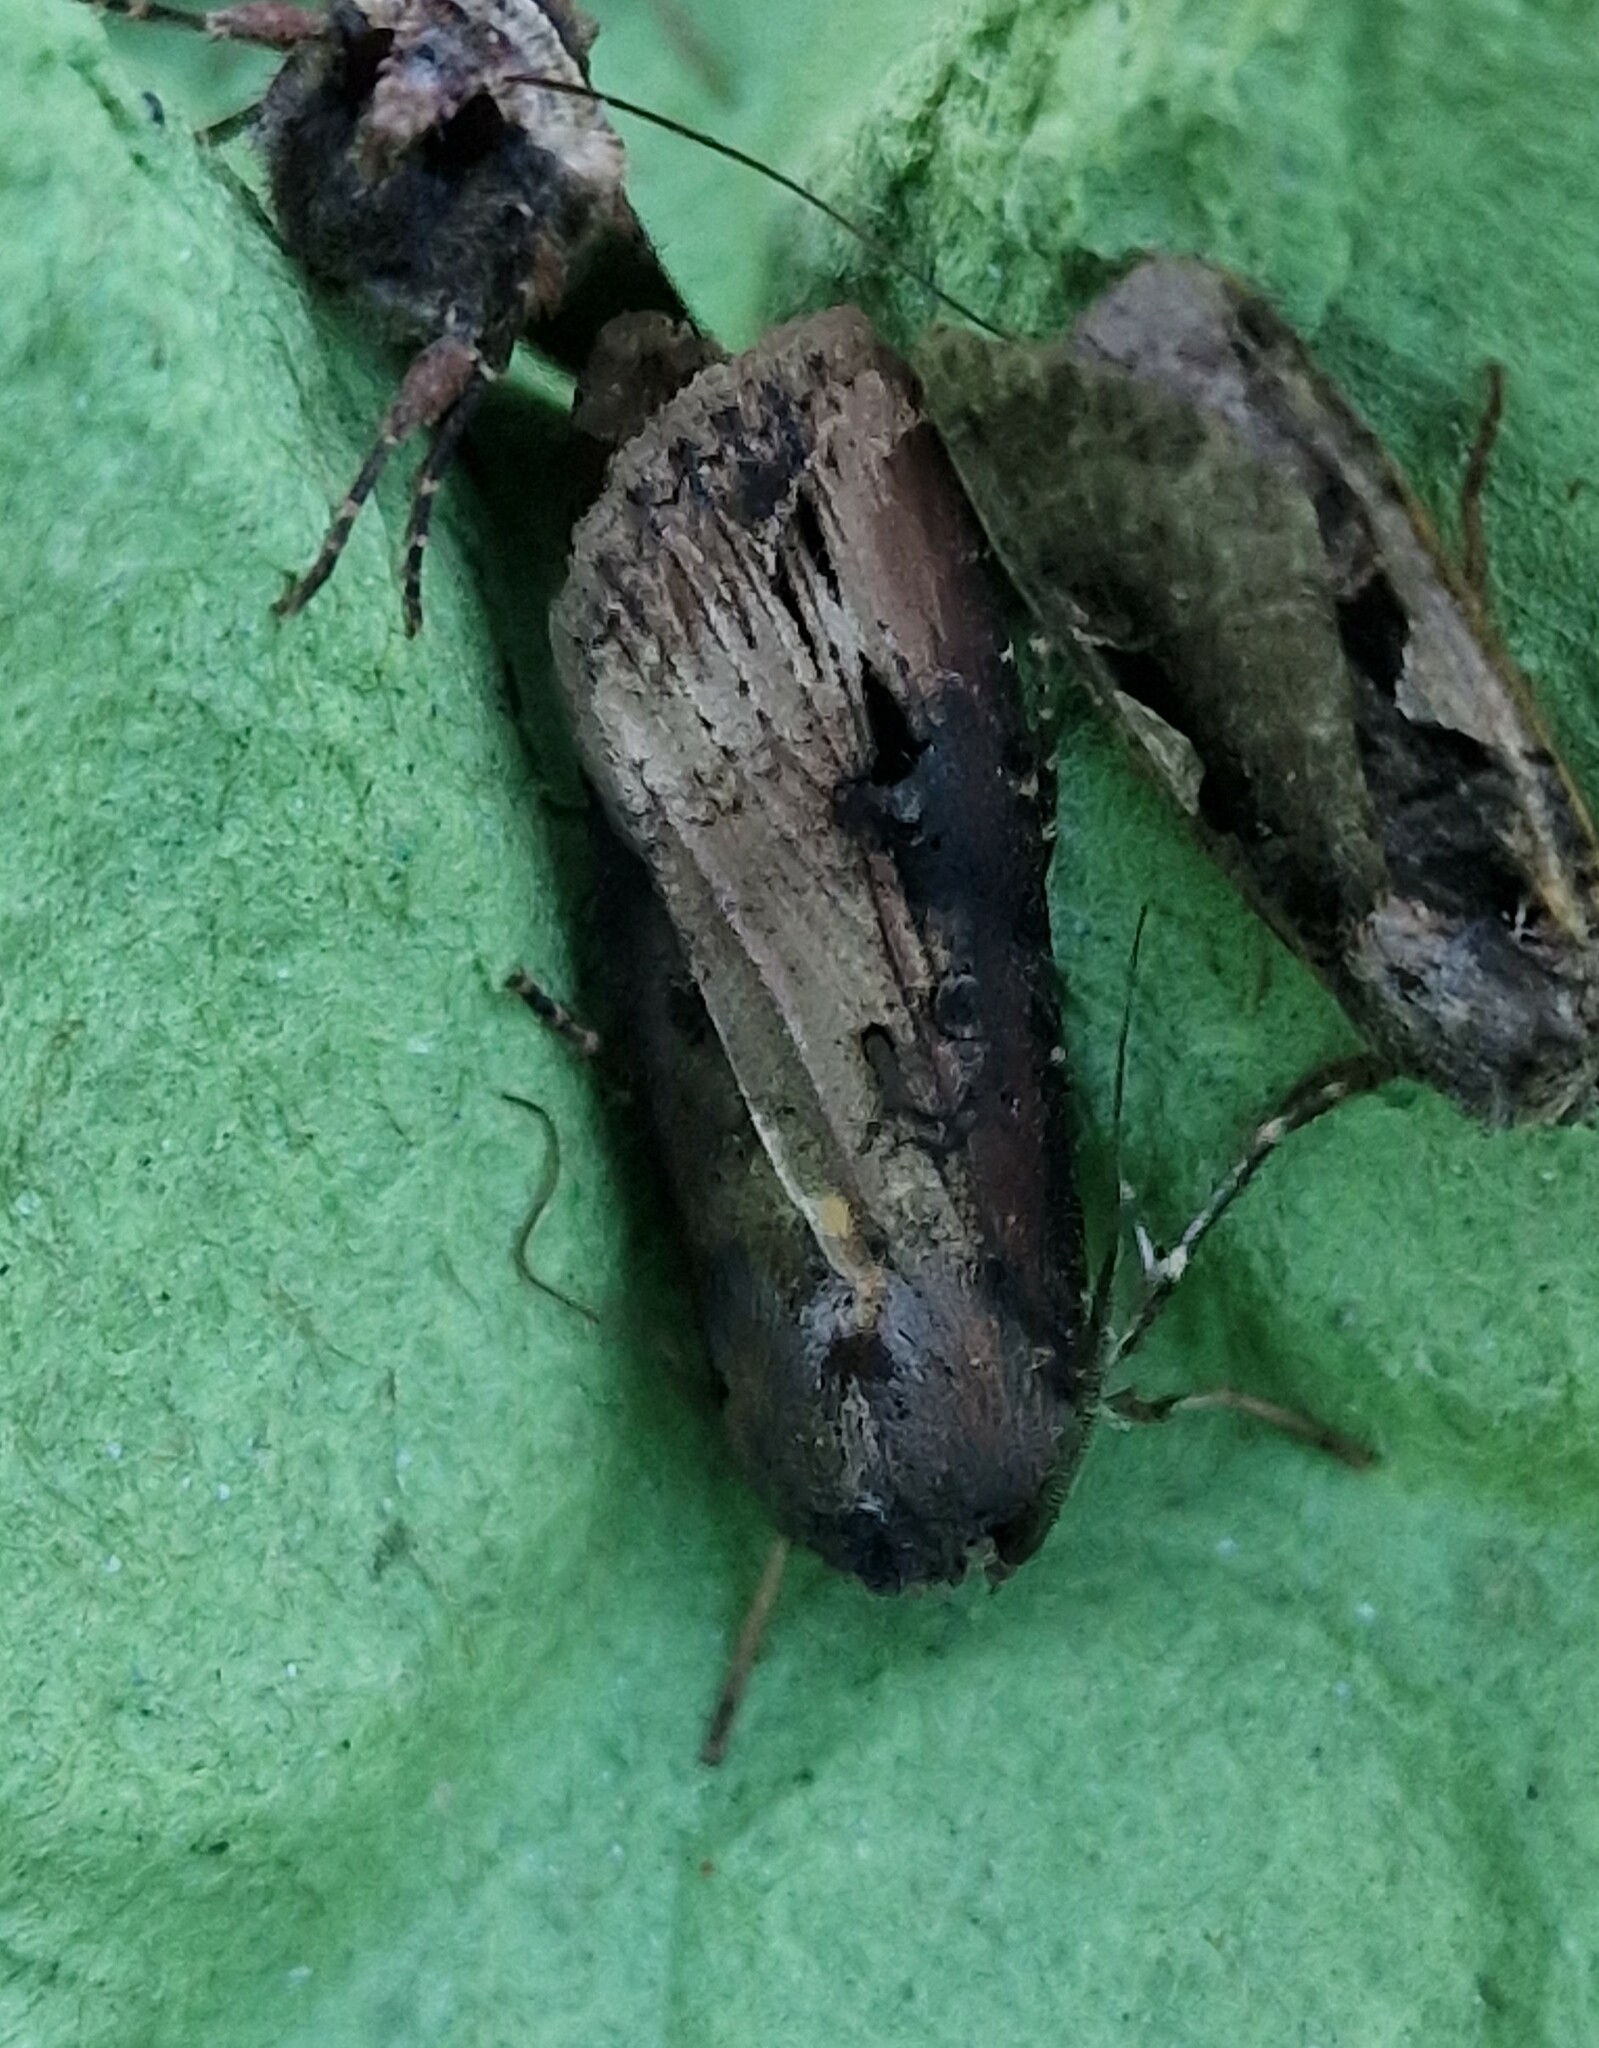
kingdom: Animalia
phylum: Arthropoda
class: Insecta
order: Lepidoptera
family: Noctuidae
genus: Agrotis
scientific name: Agrotis ipsilon
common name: Dark sword-grass
